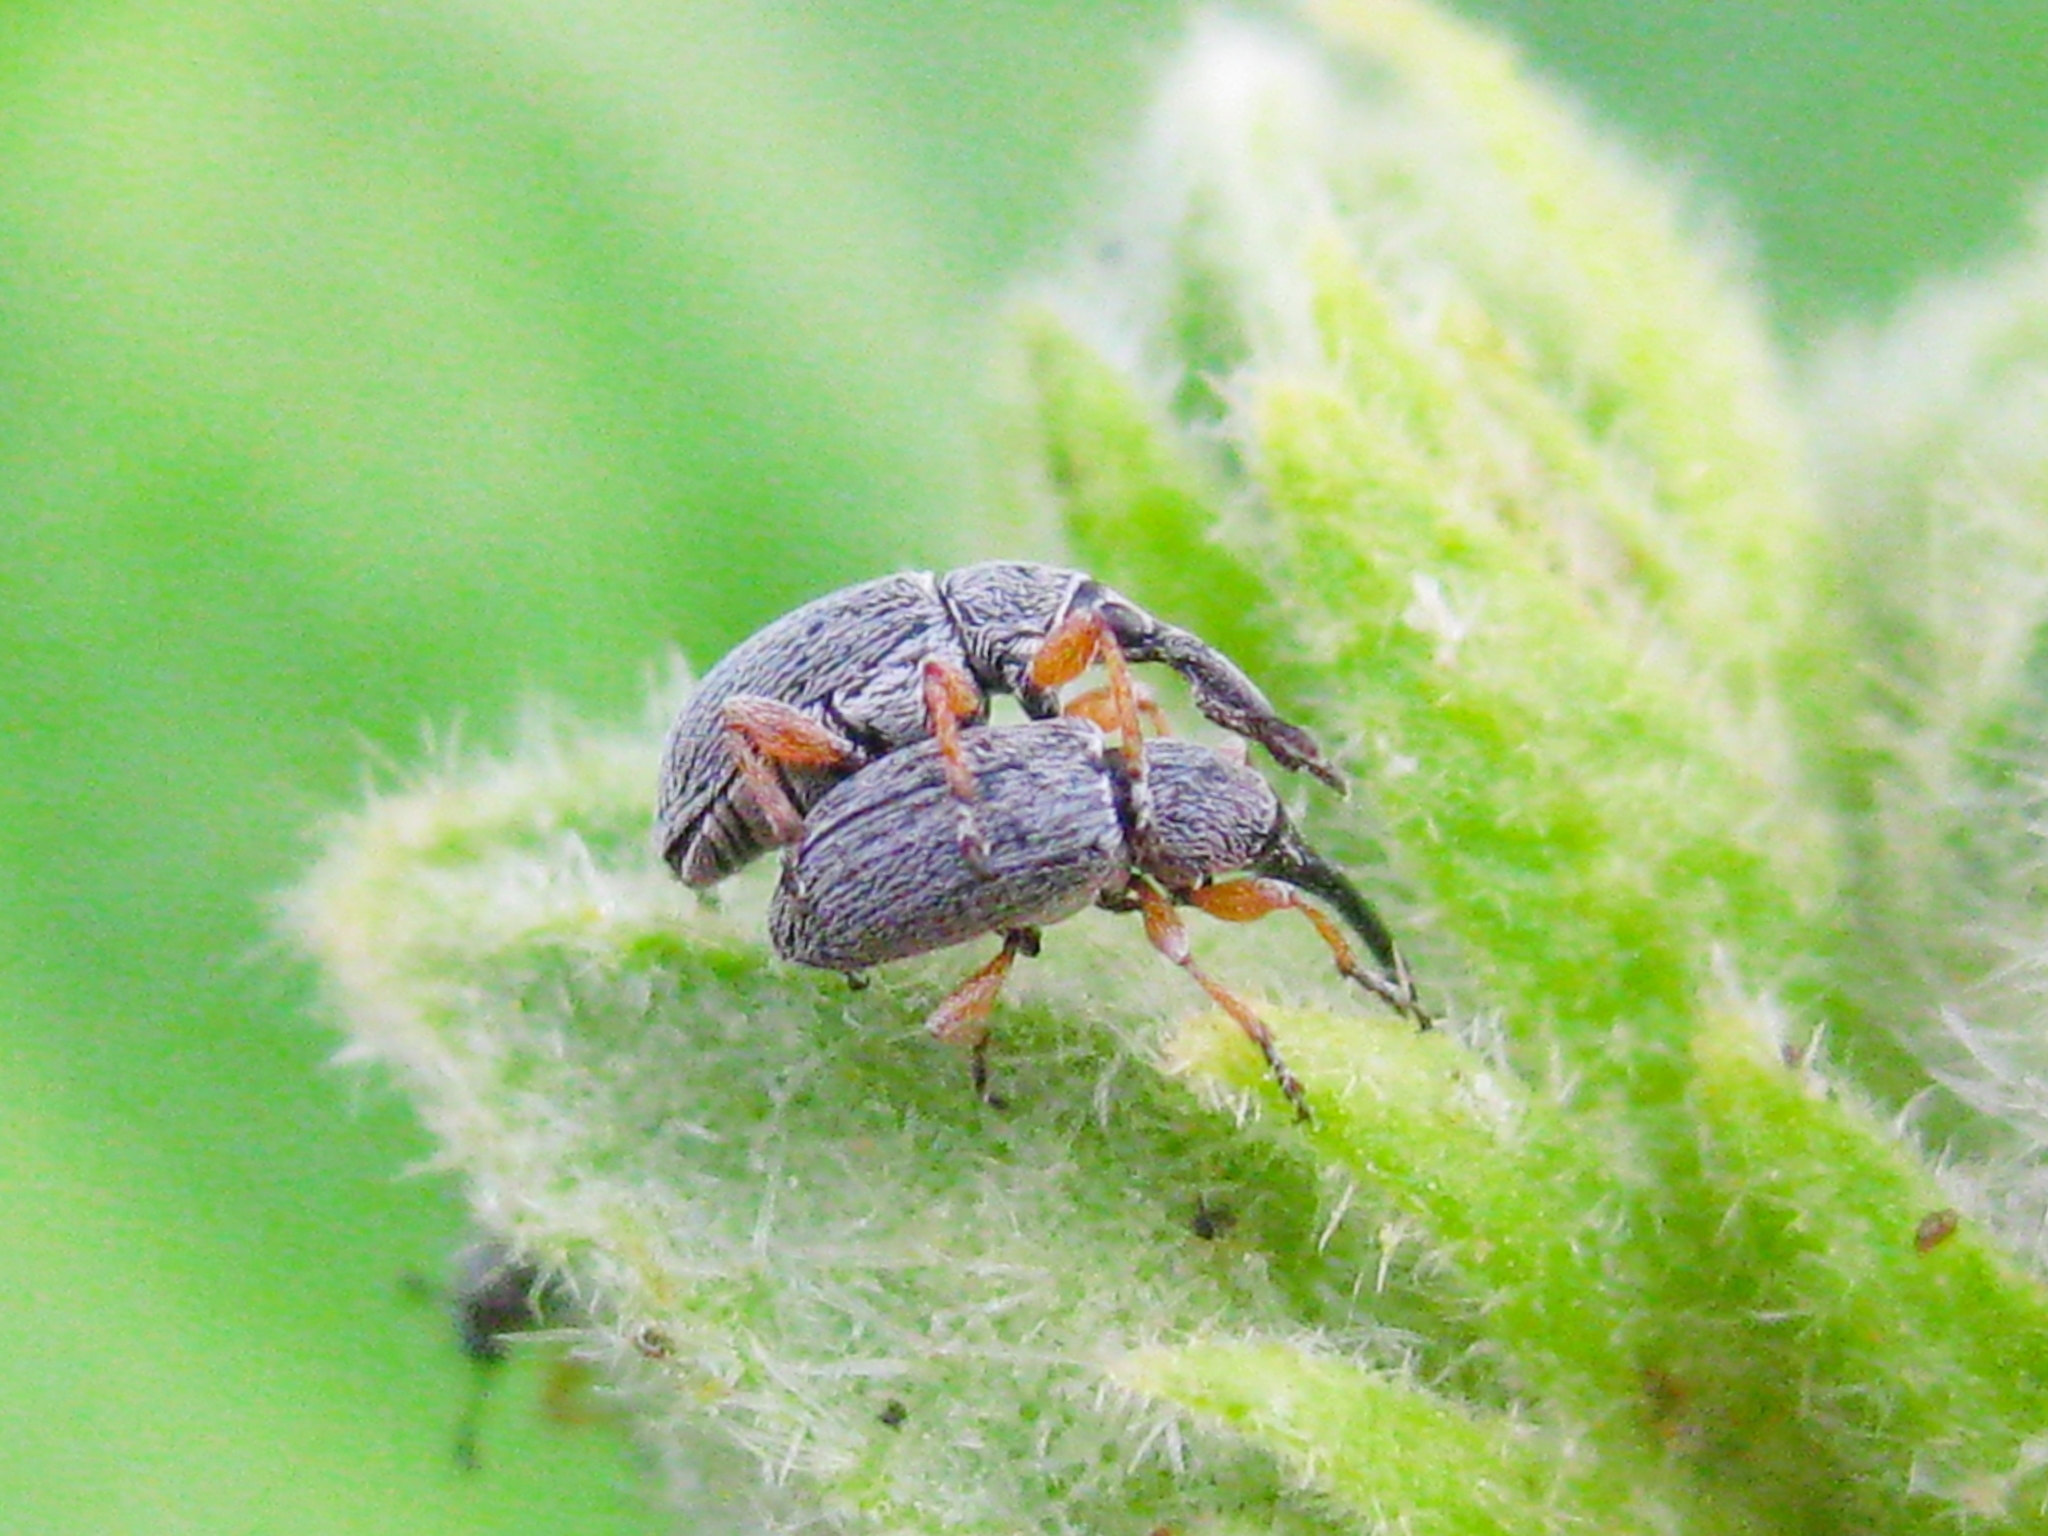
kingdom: Animalia
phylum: Arthropoda
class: Insecta
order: Coleoptera
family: Brentidae
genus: Rhopalapion
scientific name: Rhopalapion longirostre
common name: Hollyhock weevil
